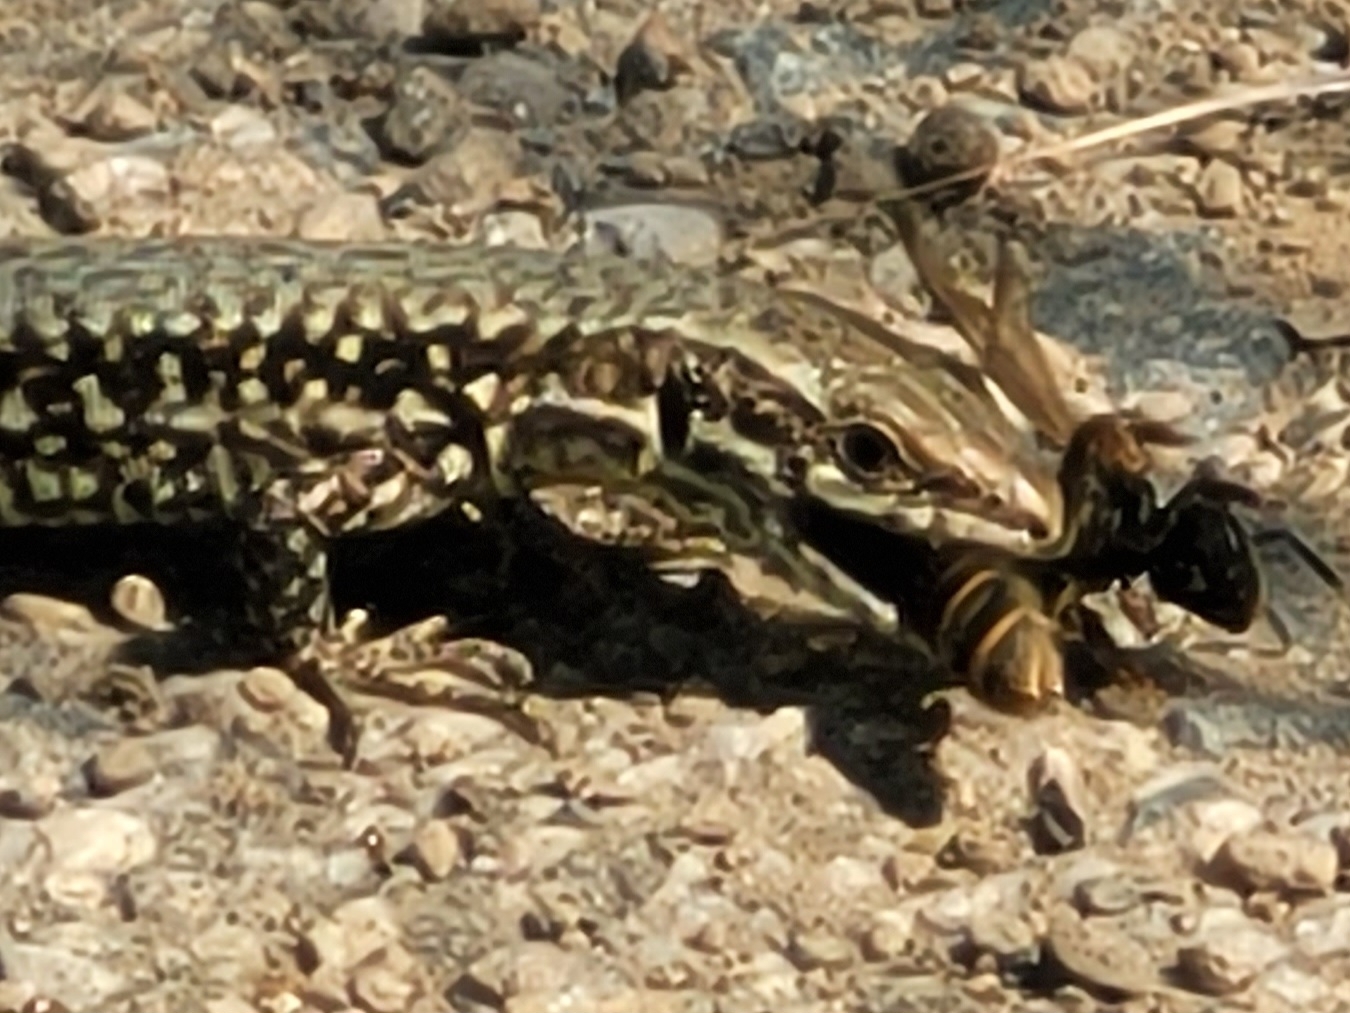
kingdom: Animalia
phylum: Chordata
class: Squamata
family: Lacertidae
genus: Podarcis
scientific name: Podarcis muralis
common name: Common wall lizard
